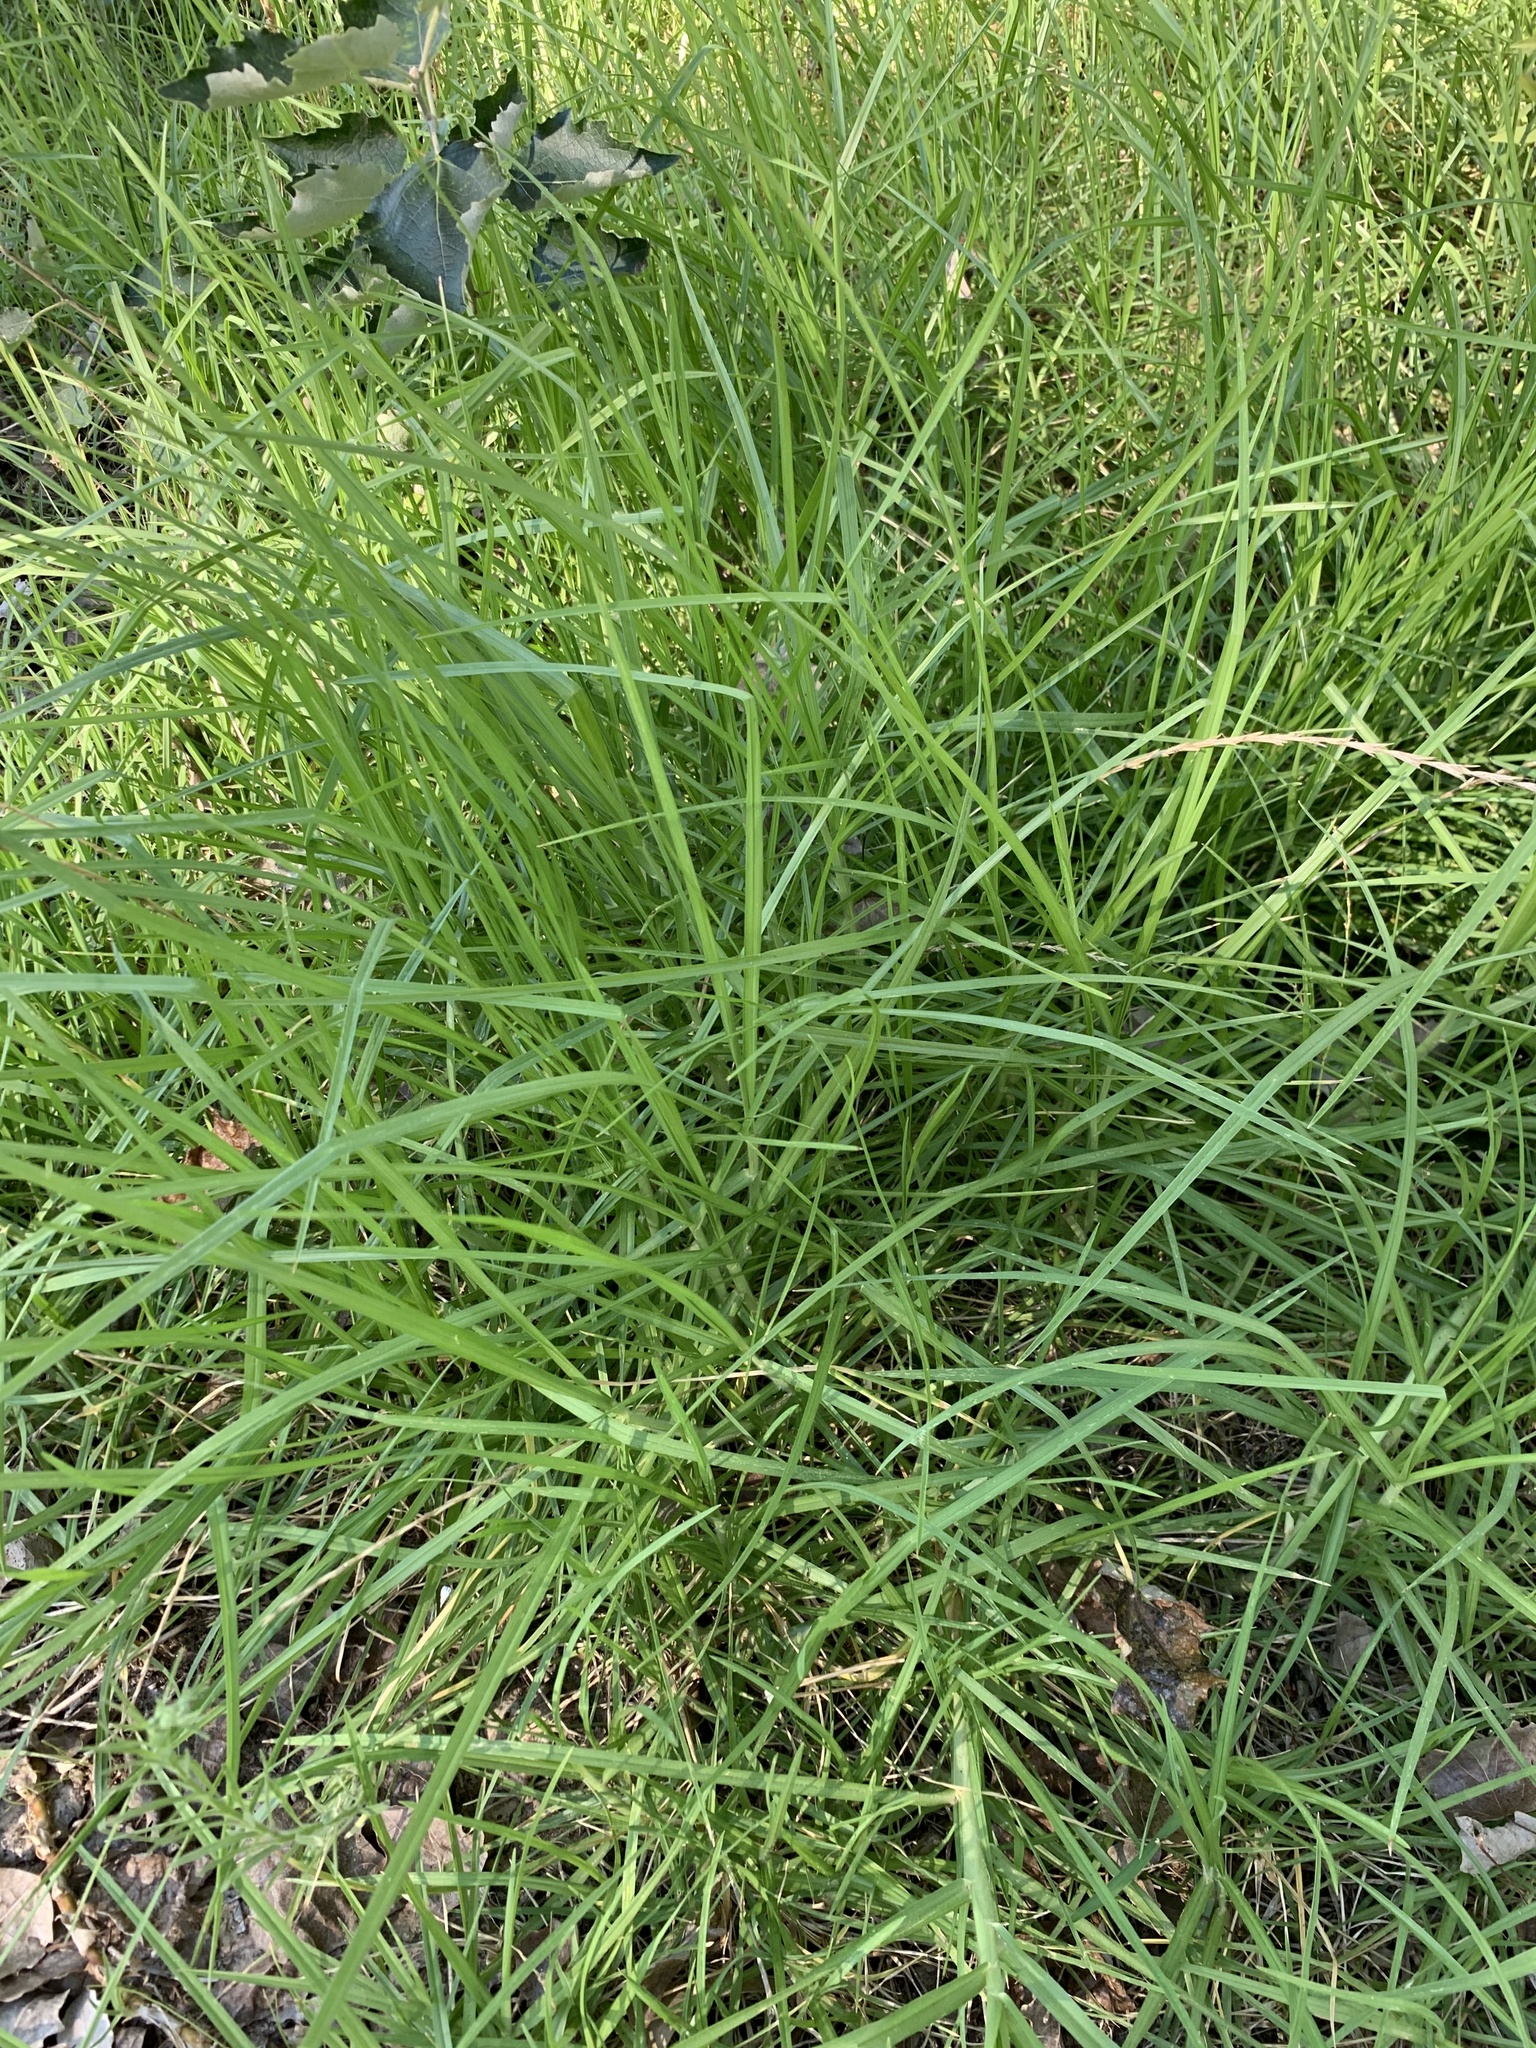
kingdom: Plantae
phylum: Tracheophyta
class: Liliopsida
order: Poales
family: Poaceae
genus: Cenchrus
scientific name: Cenchrus clandestinus
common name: Kikuyugrass
